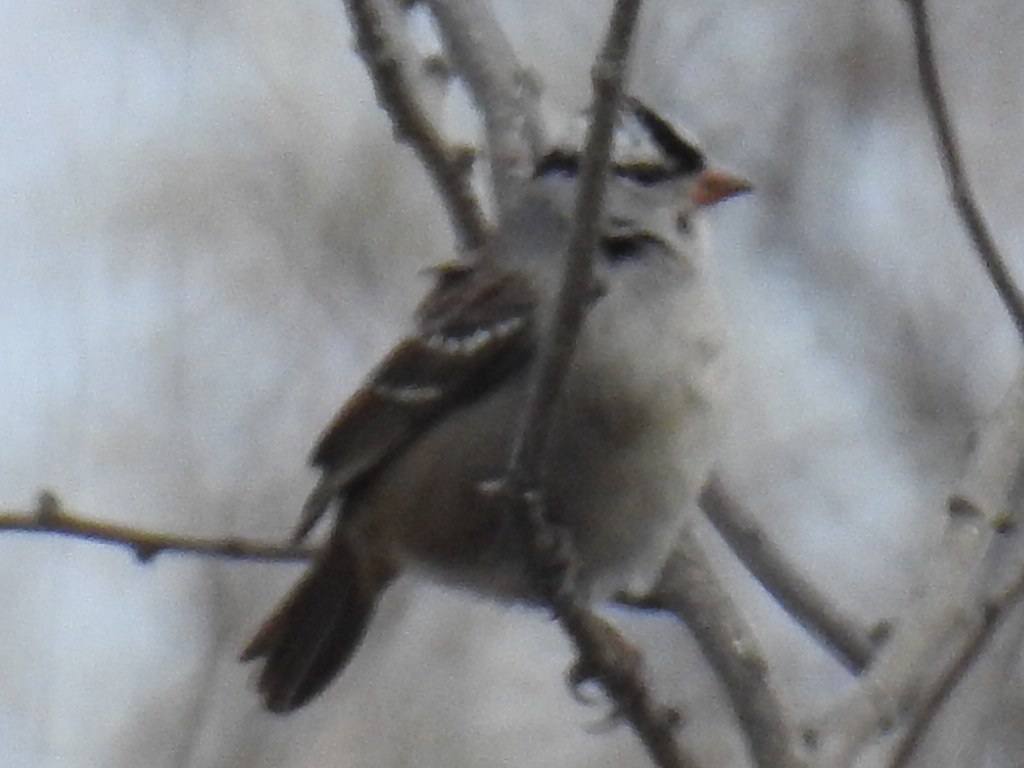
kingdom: Animalia
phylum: Chordata
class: Aves
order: Passeriformes
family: Passerellidae
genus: Zonotrichia
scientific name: Zonotrichia leucophrys
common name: White-crowned sparrow
